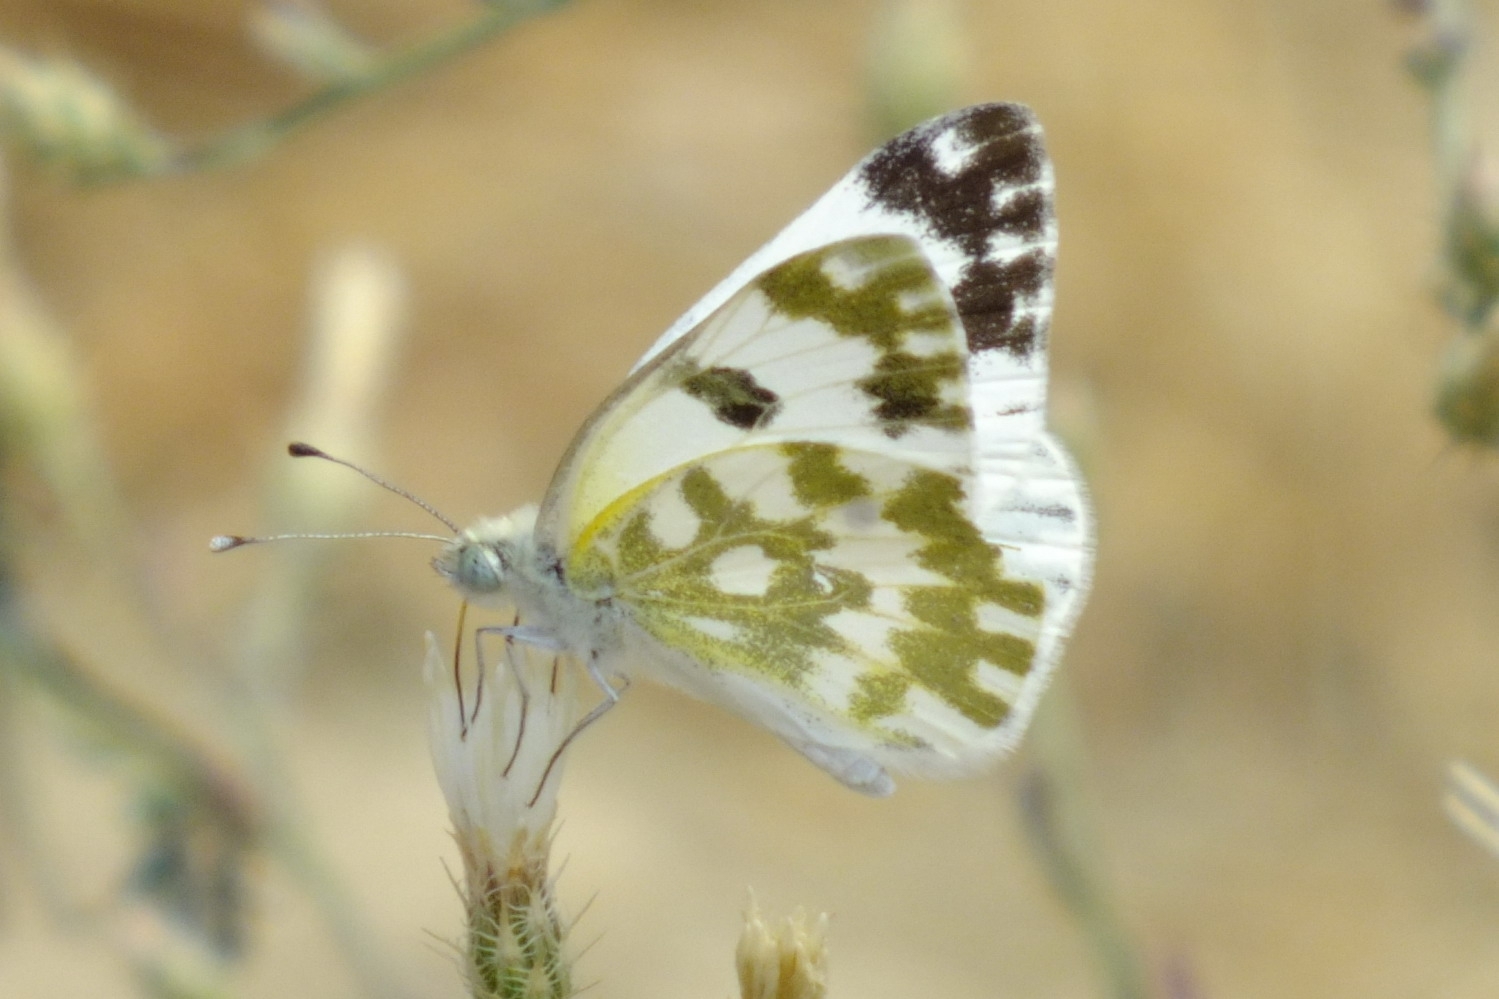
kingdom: Animalia
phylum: Arthropoda
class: Insecta
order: Lepidoptera
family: Pieridae
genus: Pontia
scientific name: Pontia edusa
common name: Eastern bath white
